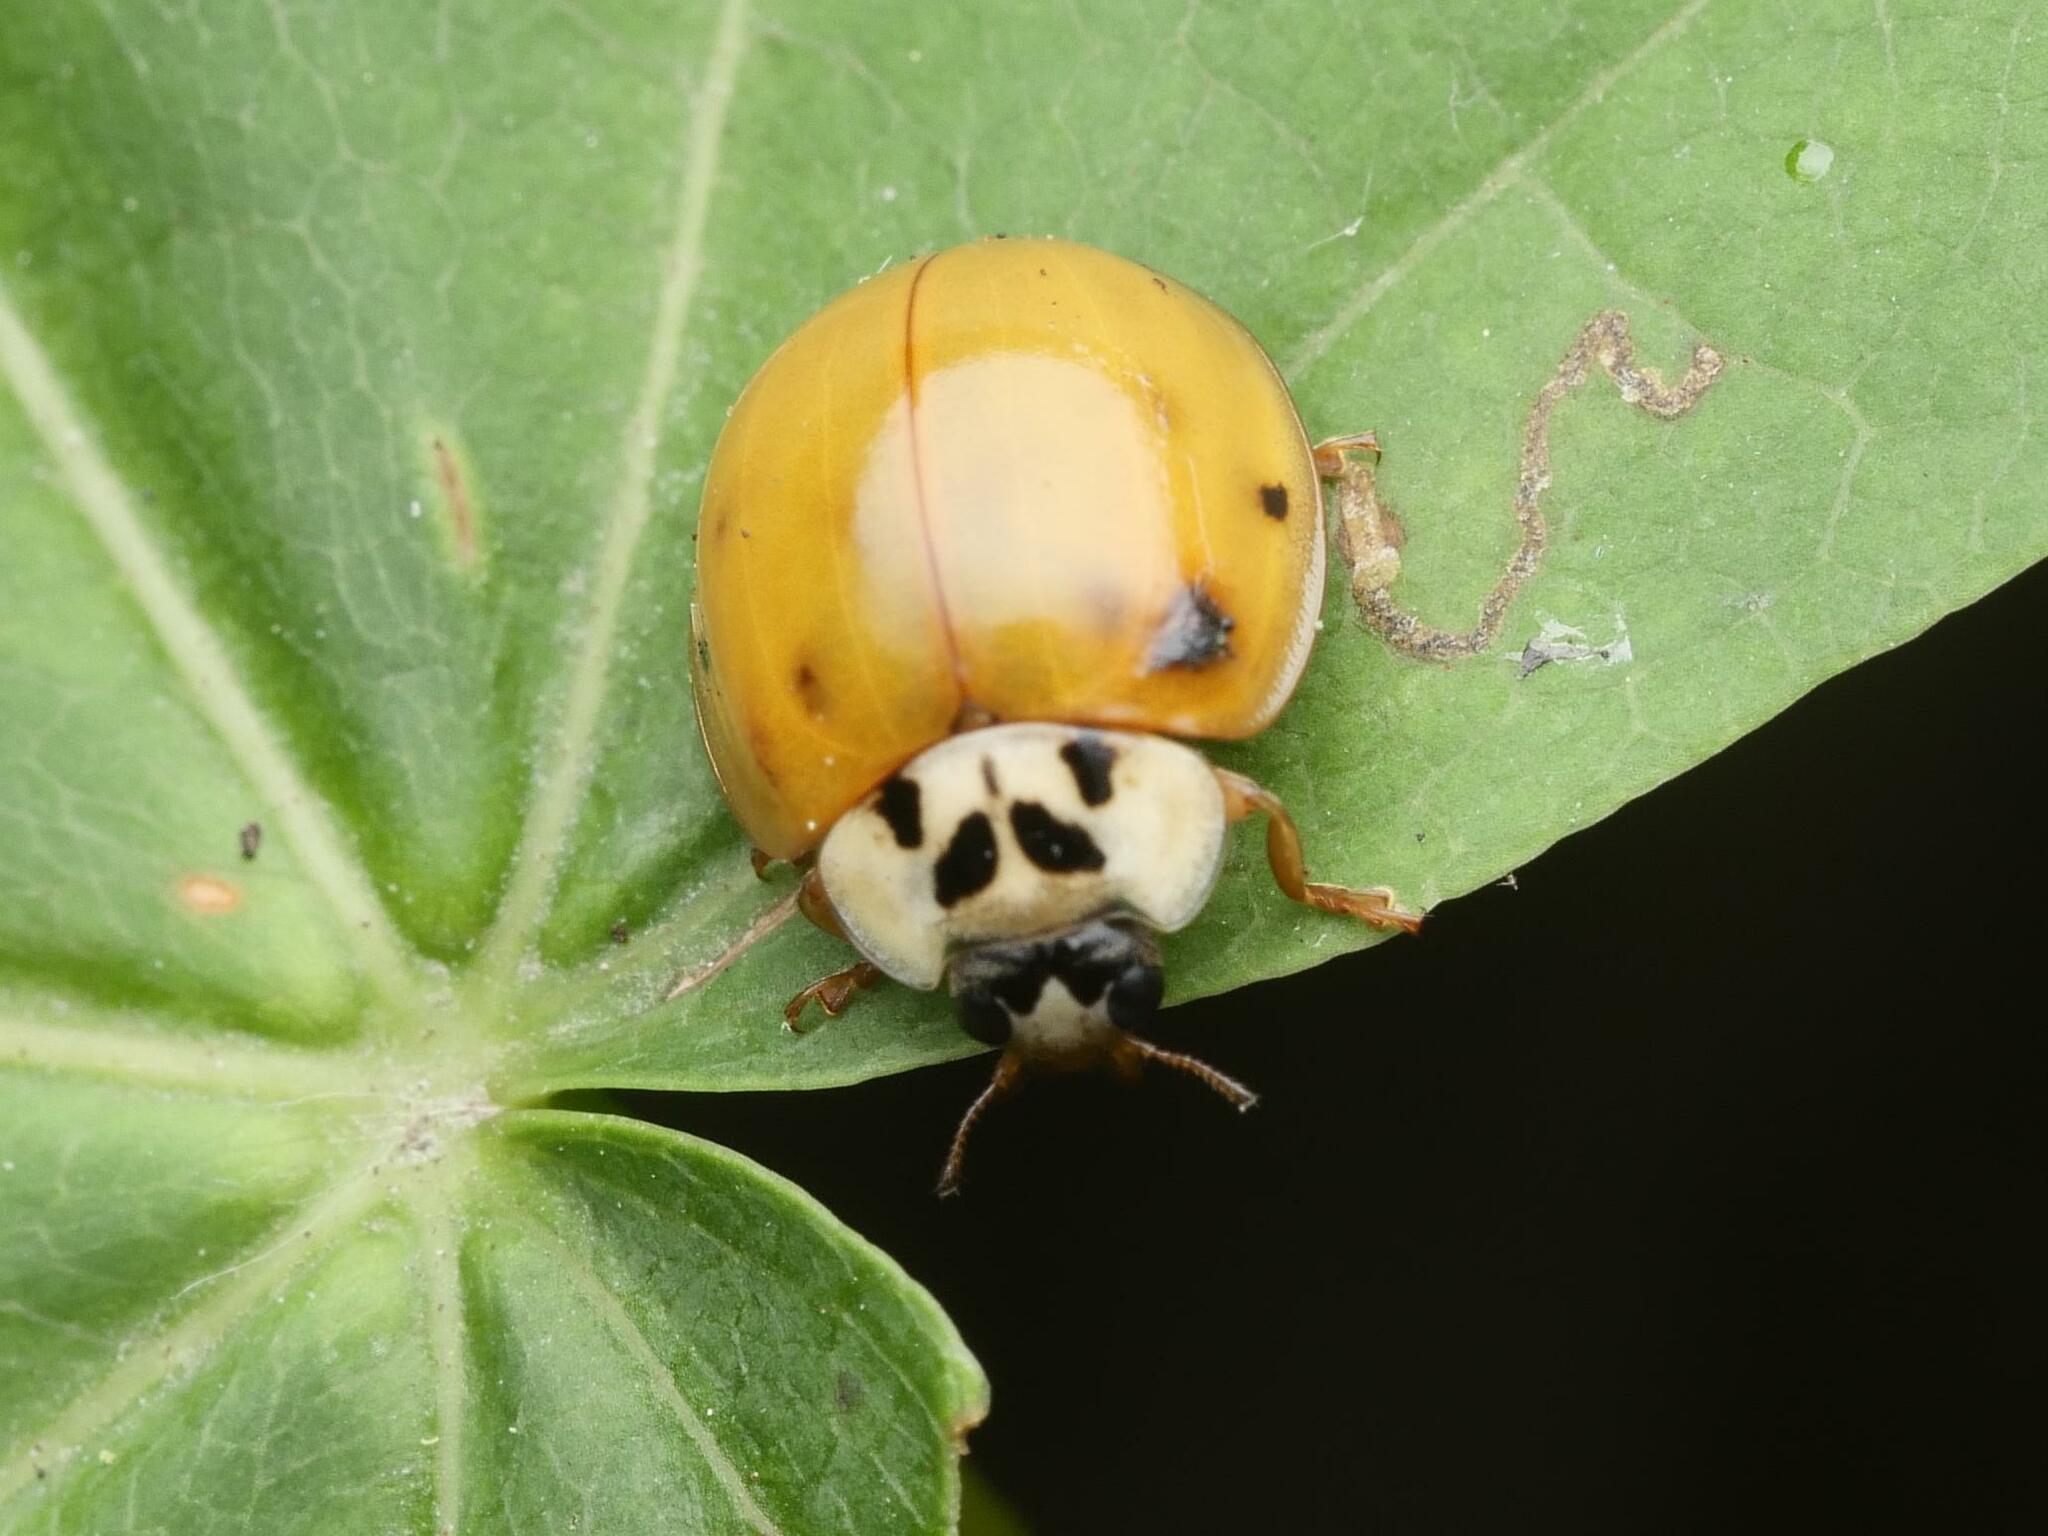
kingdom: Animalia
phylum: Arthropoda
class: Insecta
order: Coleoptera
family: Coccinellidae
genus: Harmonia
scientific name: Harmonia axyridis
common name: Harlequin ladybird
